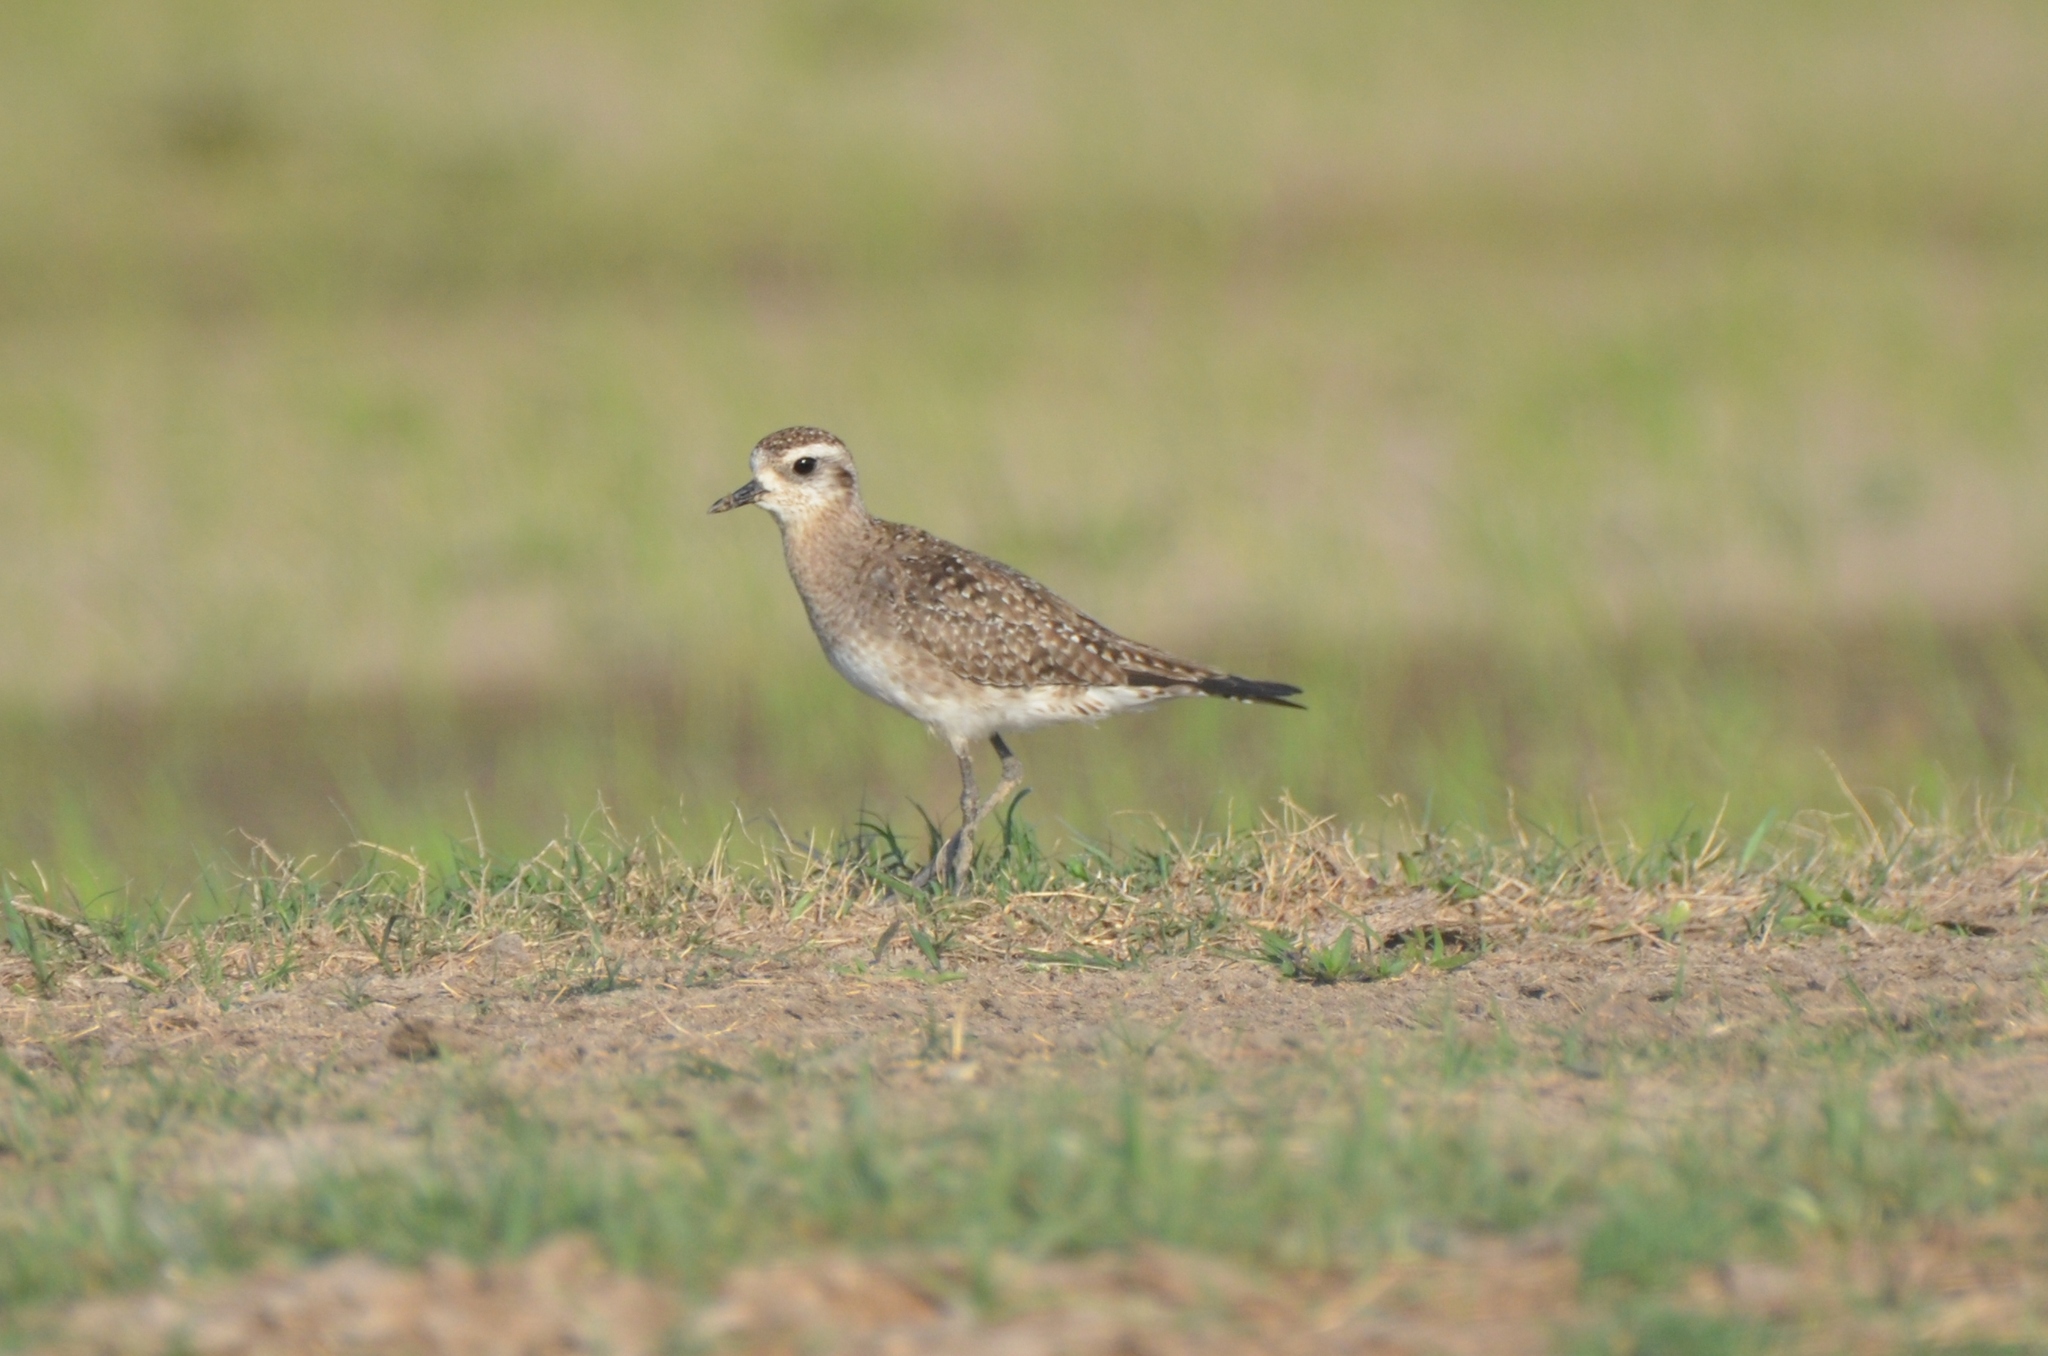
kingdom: Animalia
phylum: Chordata
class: Aves
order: Charadriiformes
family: Charadriidae
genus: Pluvialis
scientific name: Pluvialis dominica
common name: American golden plover
